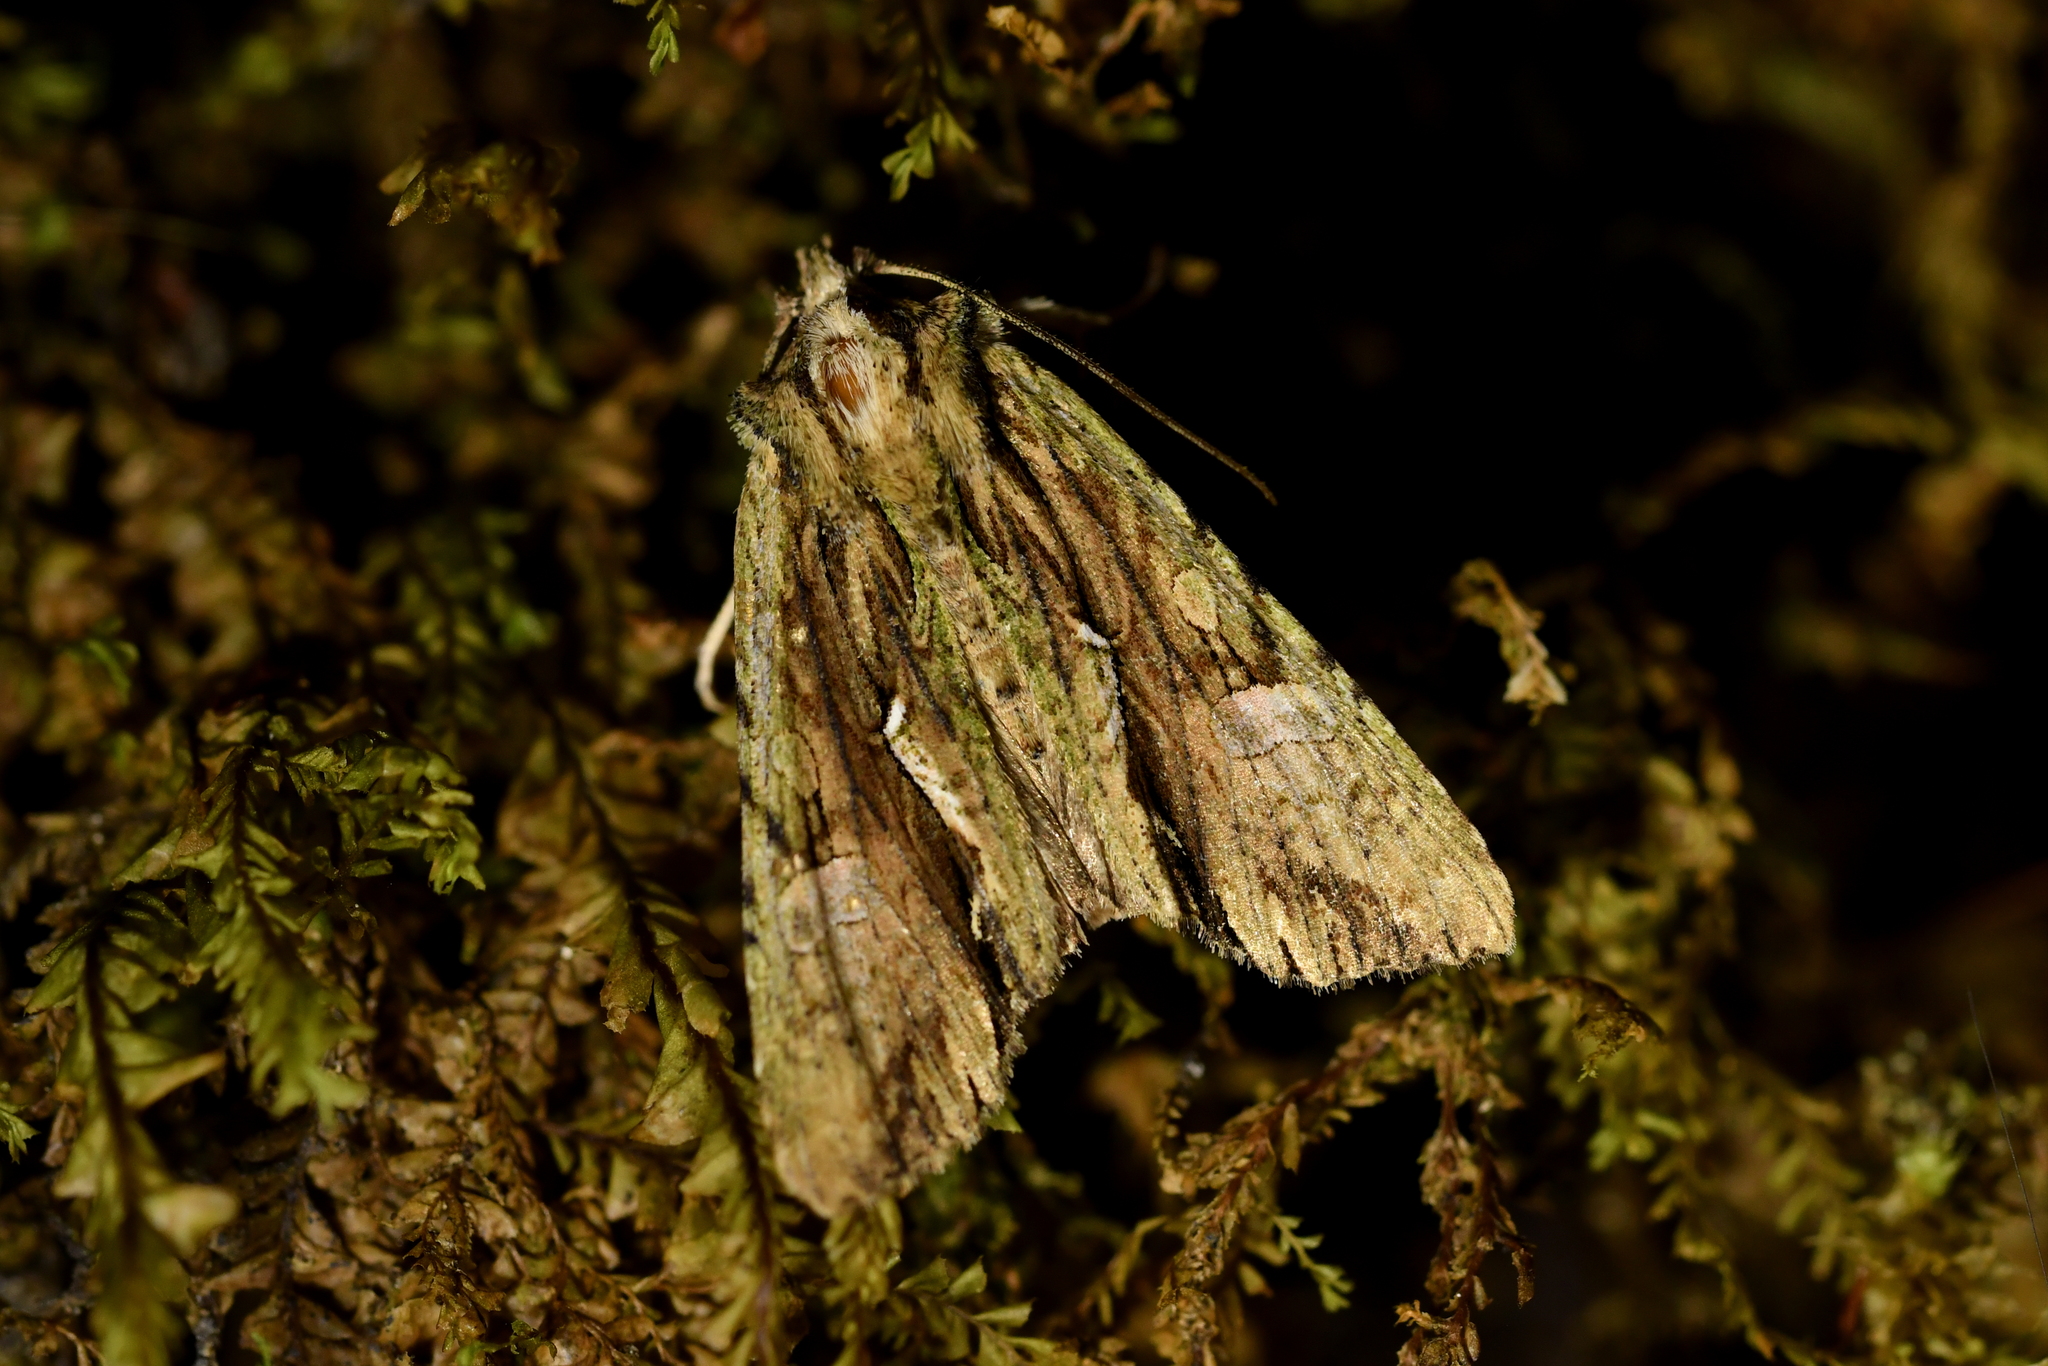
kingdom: Animalia
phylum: Arthropoda
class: Insecta
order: Lepidoptera
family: Noctuidae
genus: Meterana
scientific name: Meterana decorata
